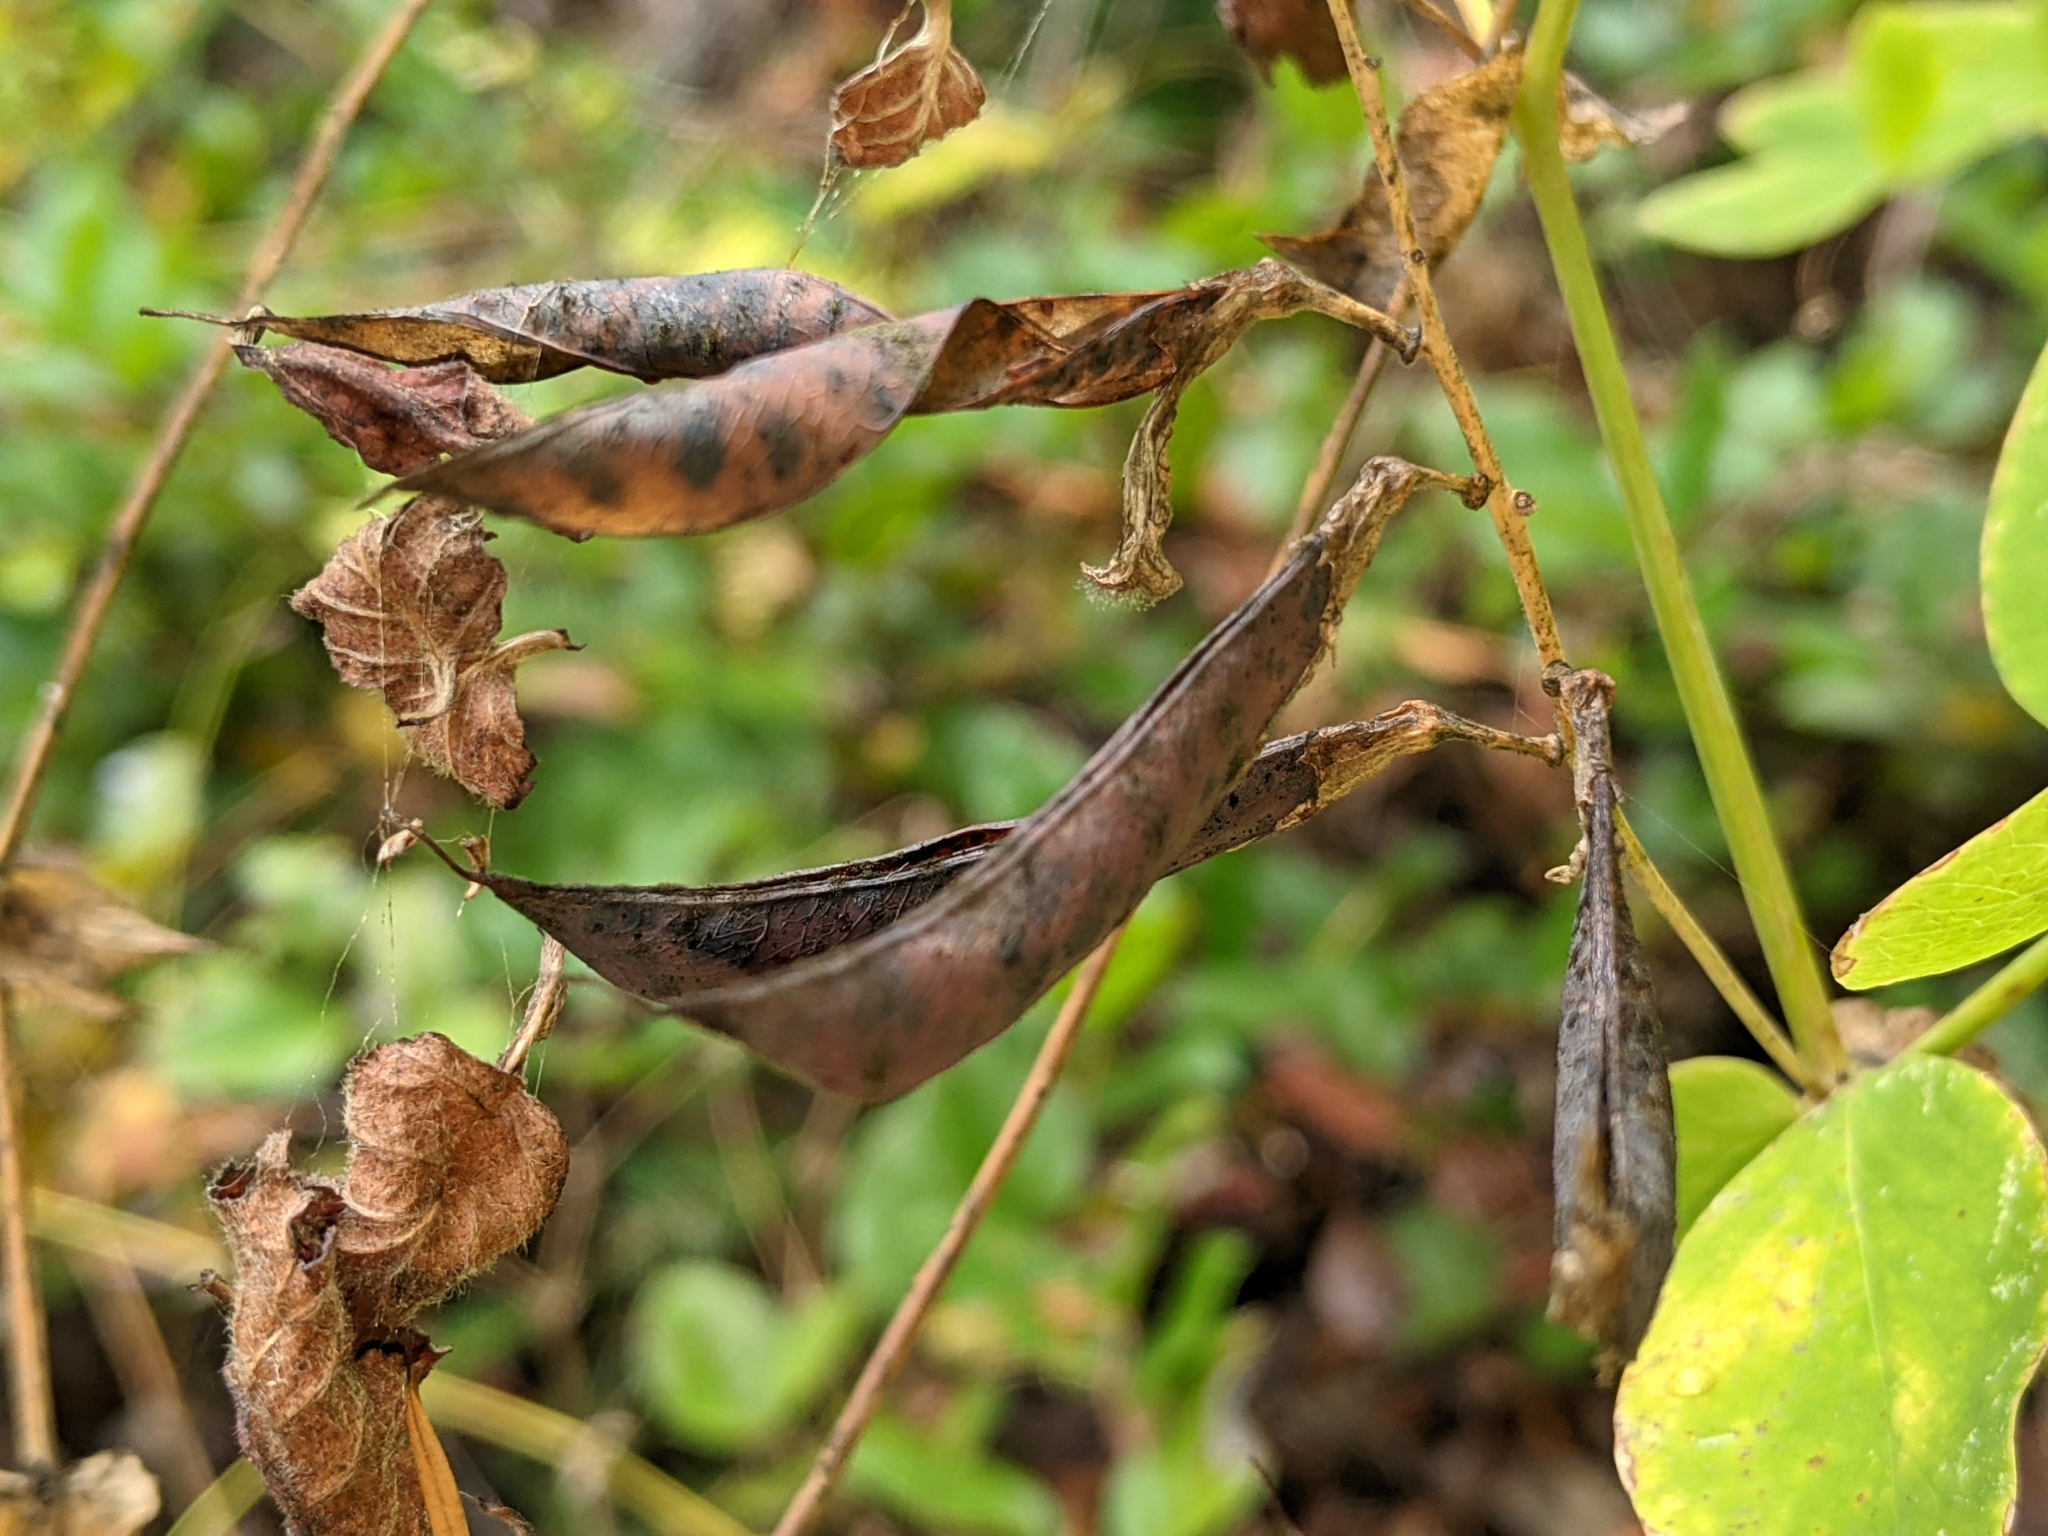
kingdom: Plantae
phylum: Tracheophyta
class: Magnoliopsida
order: Fabales
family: Fabaceae
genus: Lathyrus
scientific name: Lathyrus polyphyllus
